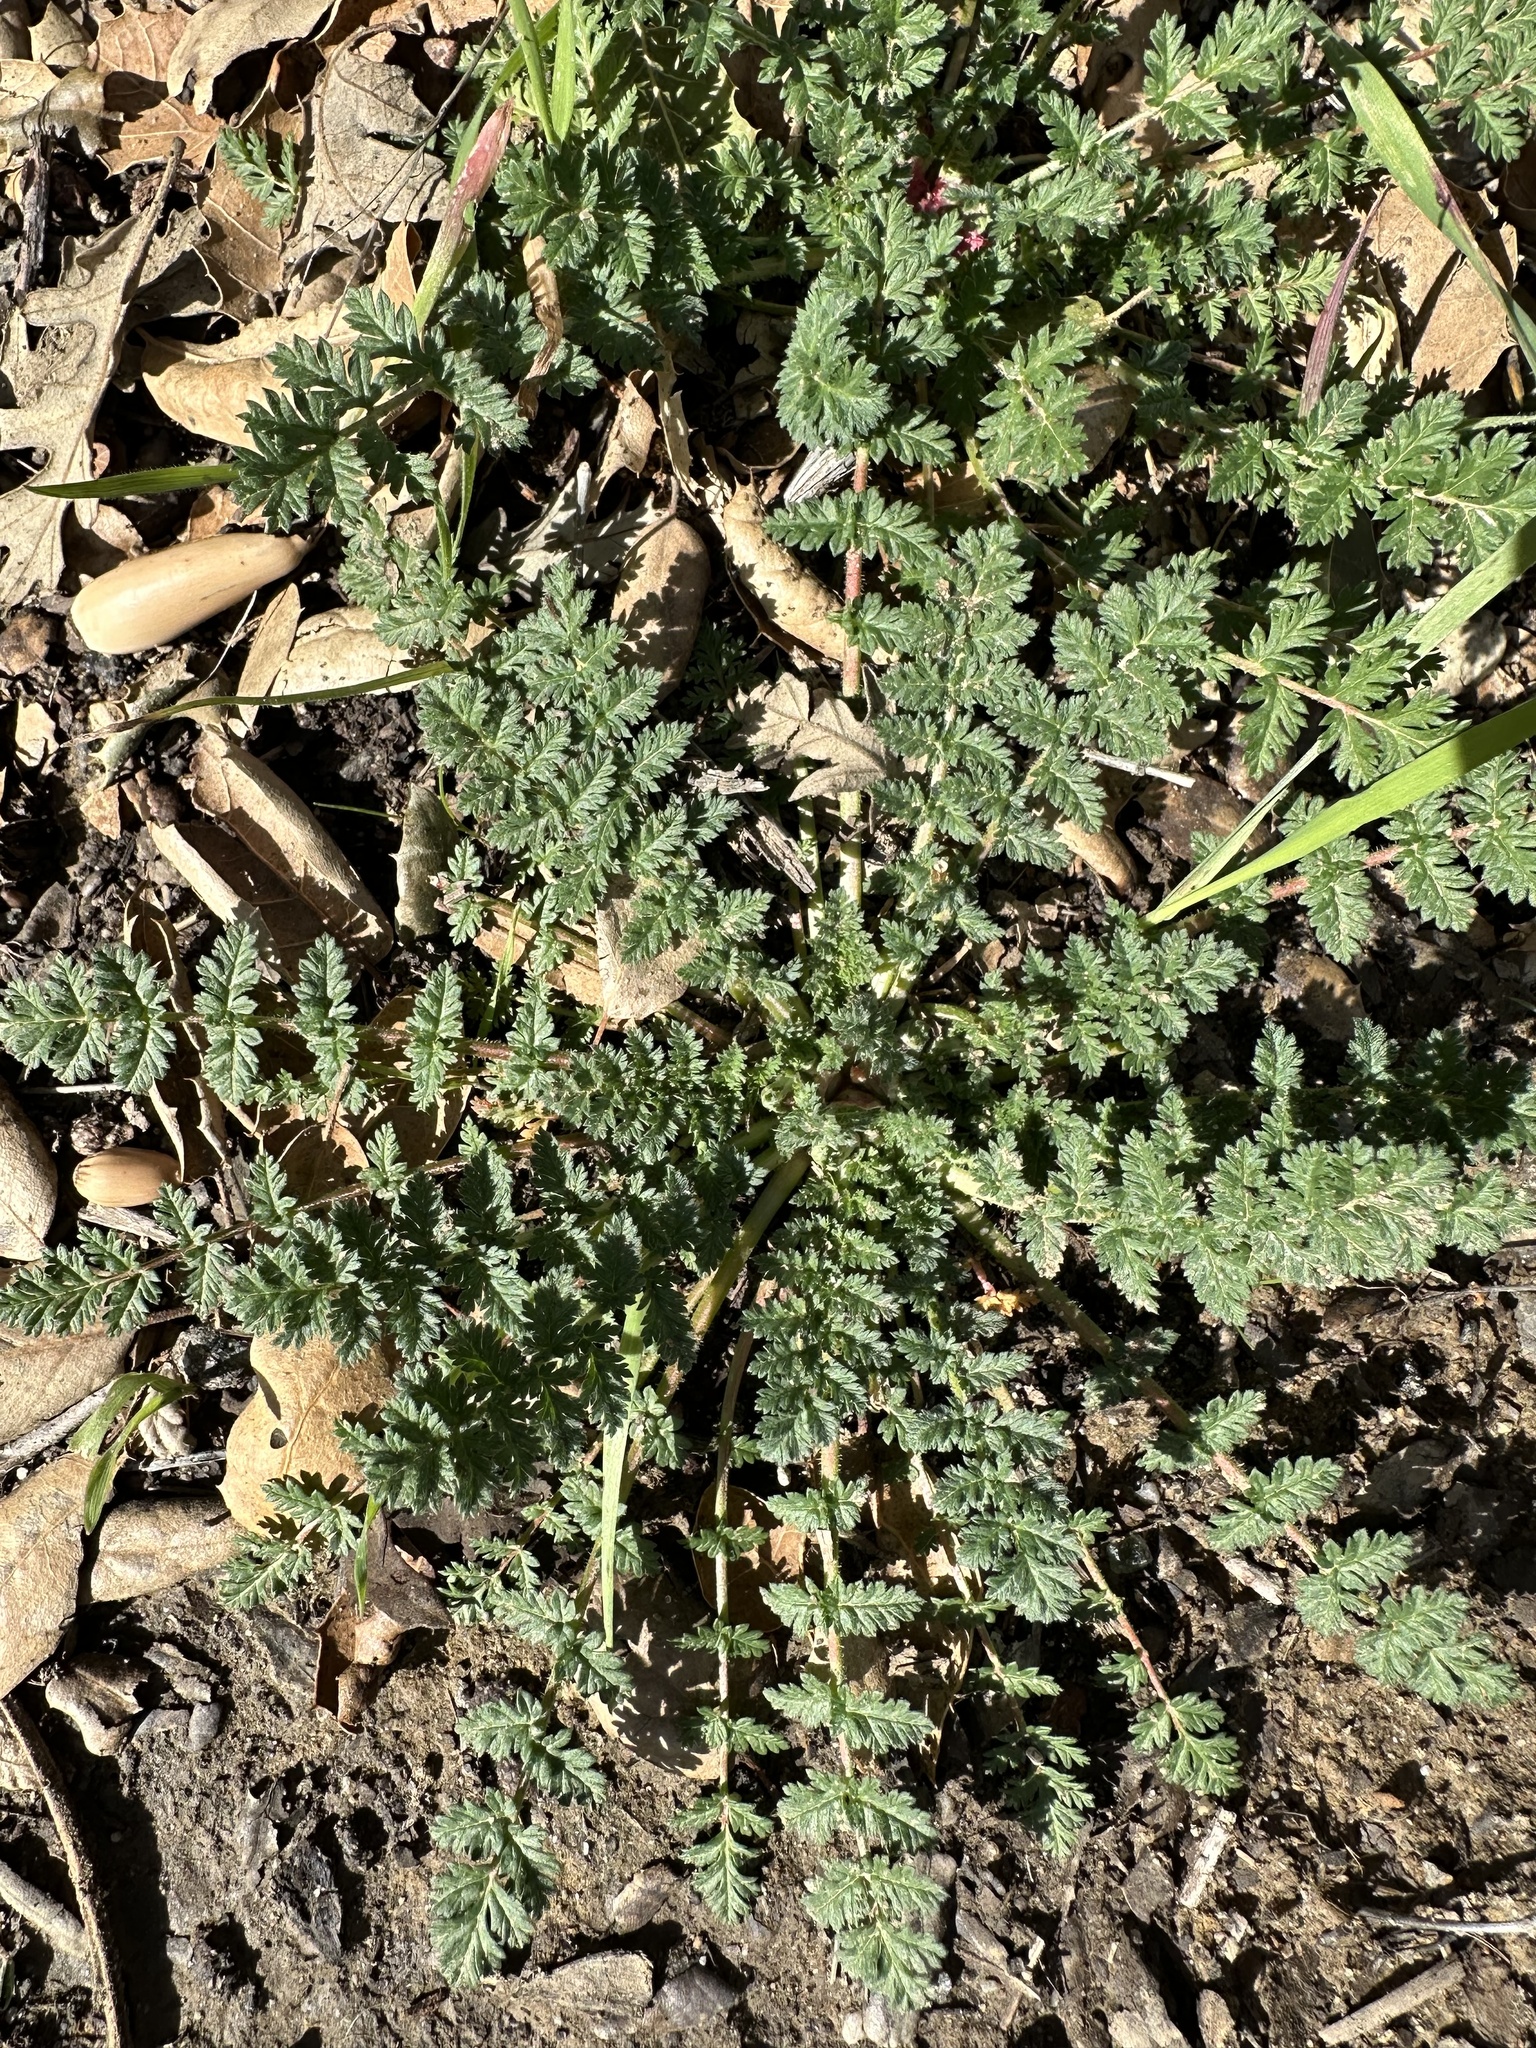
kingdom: Plantae
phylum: Tracheophyta
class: Magnoliopsida
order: Geraniales
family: Geraniaceae
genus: Erodium
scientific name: Erodium cicutarium
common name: Common stork's-bill
